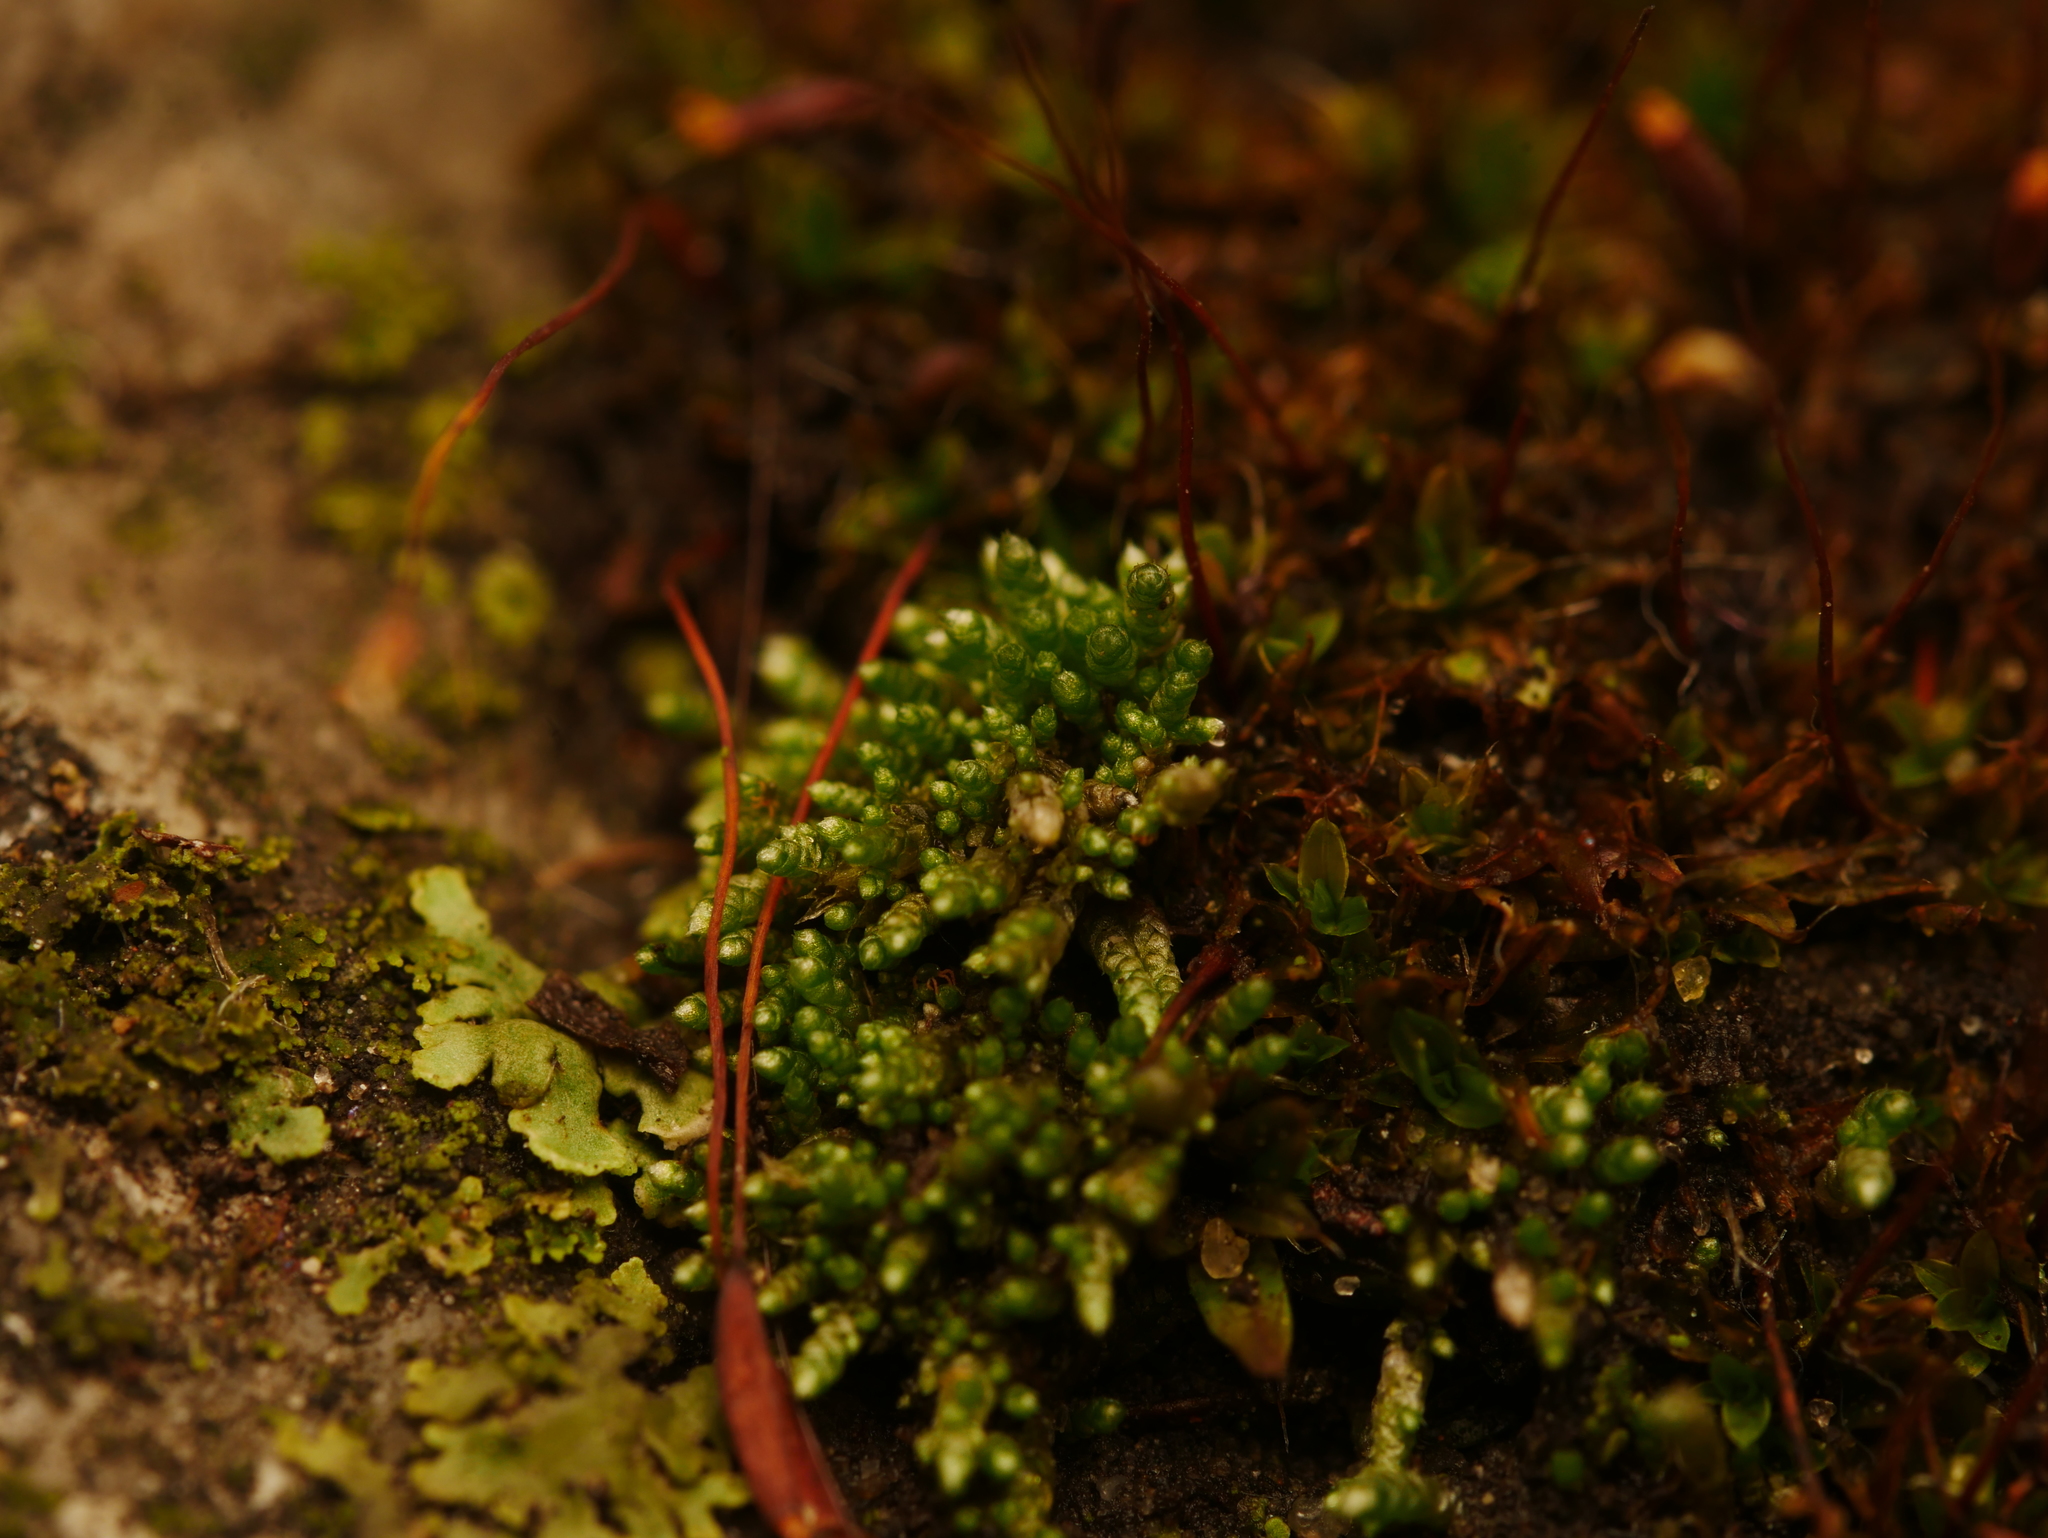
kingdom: Plantae
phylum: Bryophyta
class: Bryopsida
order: Bryales
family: Bryaceae
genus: Bryum
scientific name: Bryum argenteum
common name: Silver-moss
